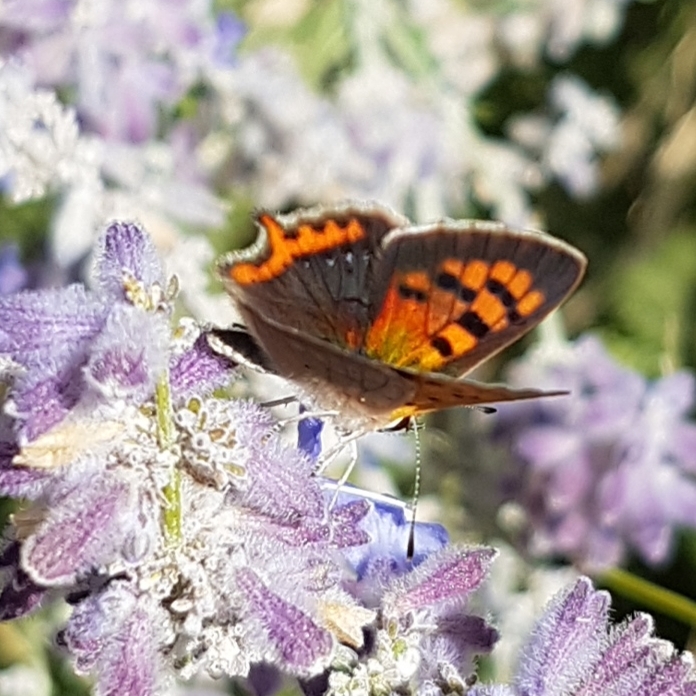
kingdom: Animalia
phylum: Arthropoda
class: Insecta
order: Lepidoptera
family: Lycaenidae
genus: Lycaena
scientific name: Lycaena phlaeas
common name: Small copper
